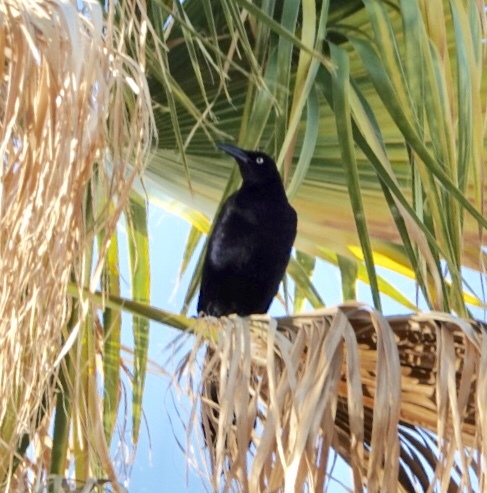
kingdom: Animalia
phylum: Chordata
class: Aves
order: Passeriformes
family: Icteridae
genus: Quiscalus
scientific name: Quiscalus mexicanus
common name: Great-tailed grackle
